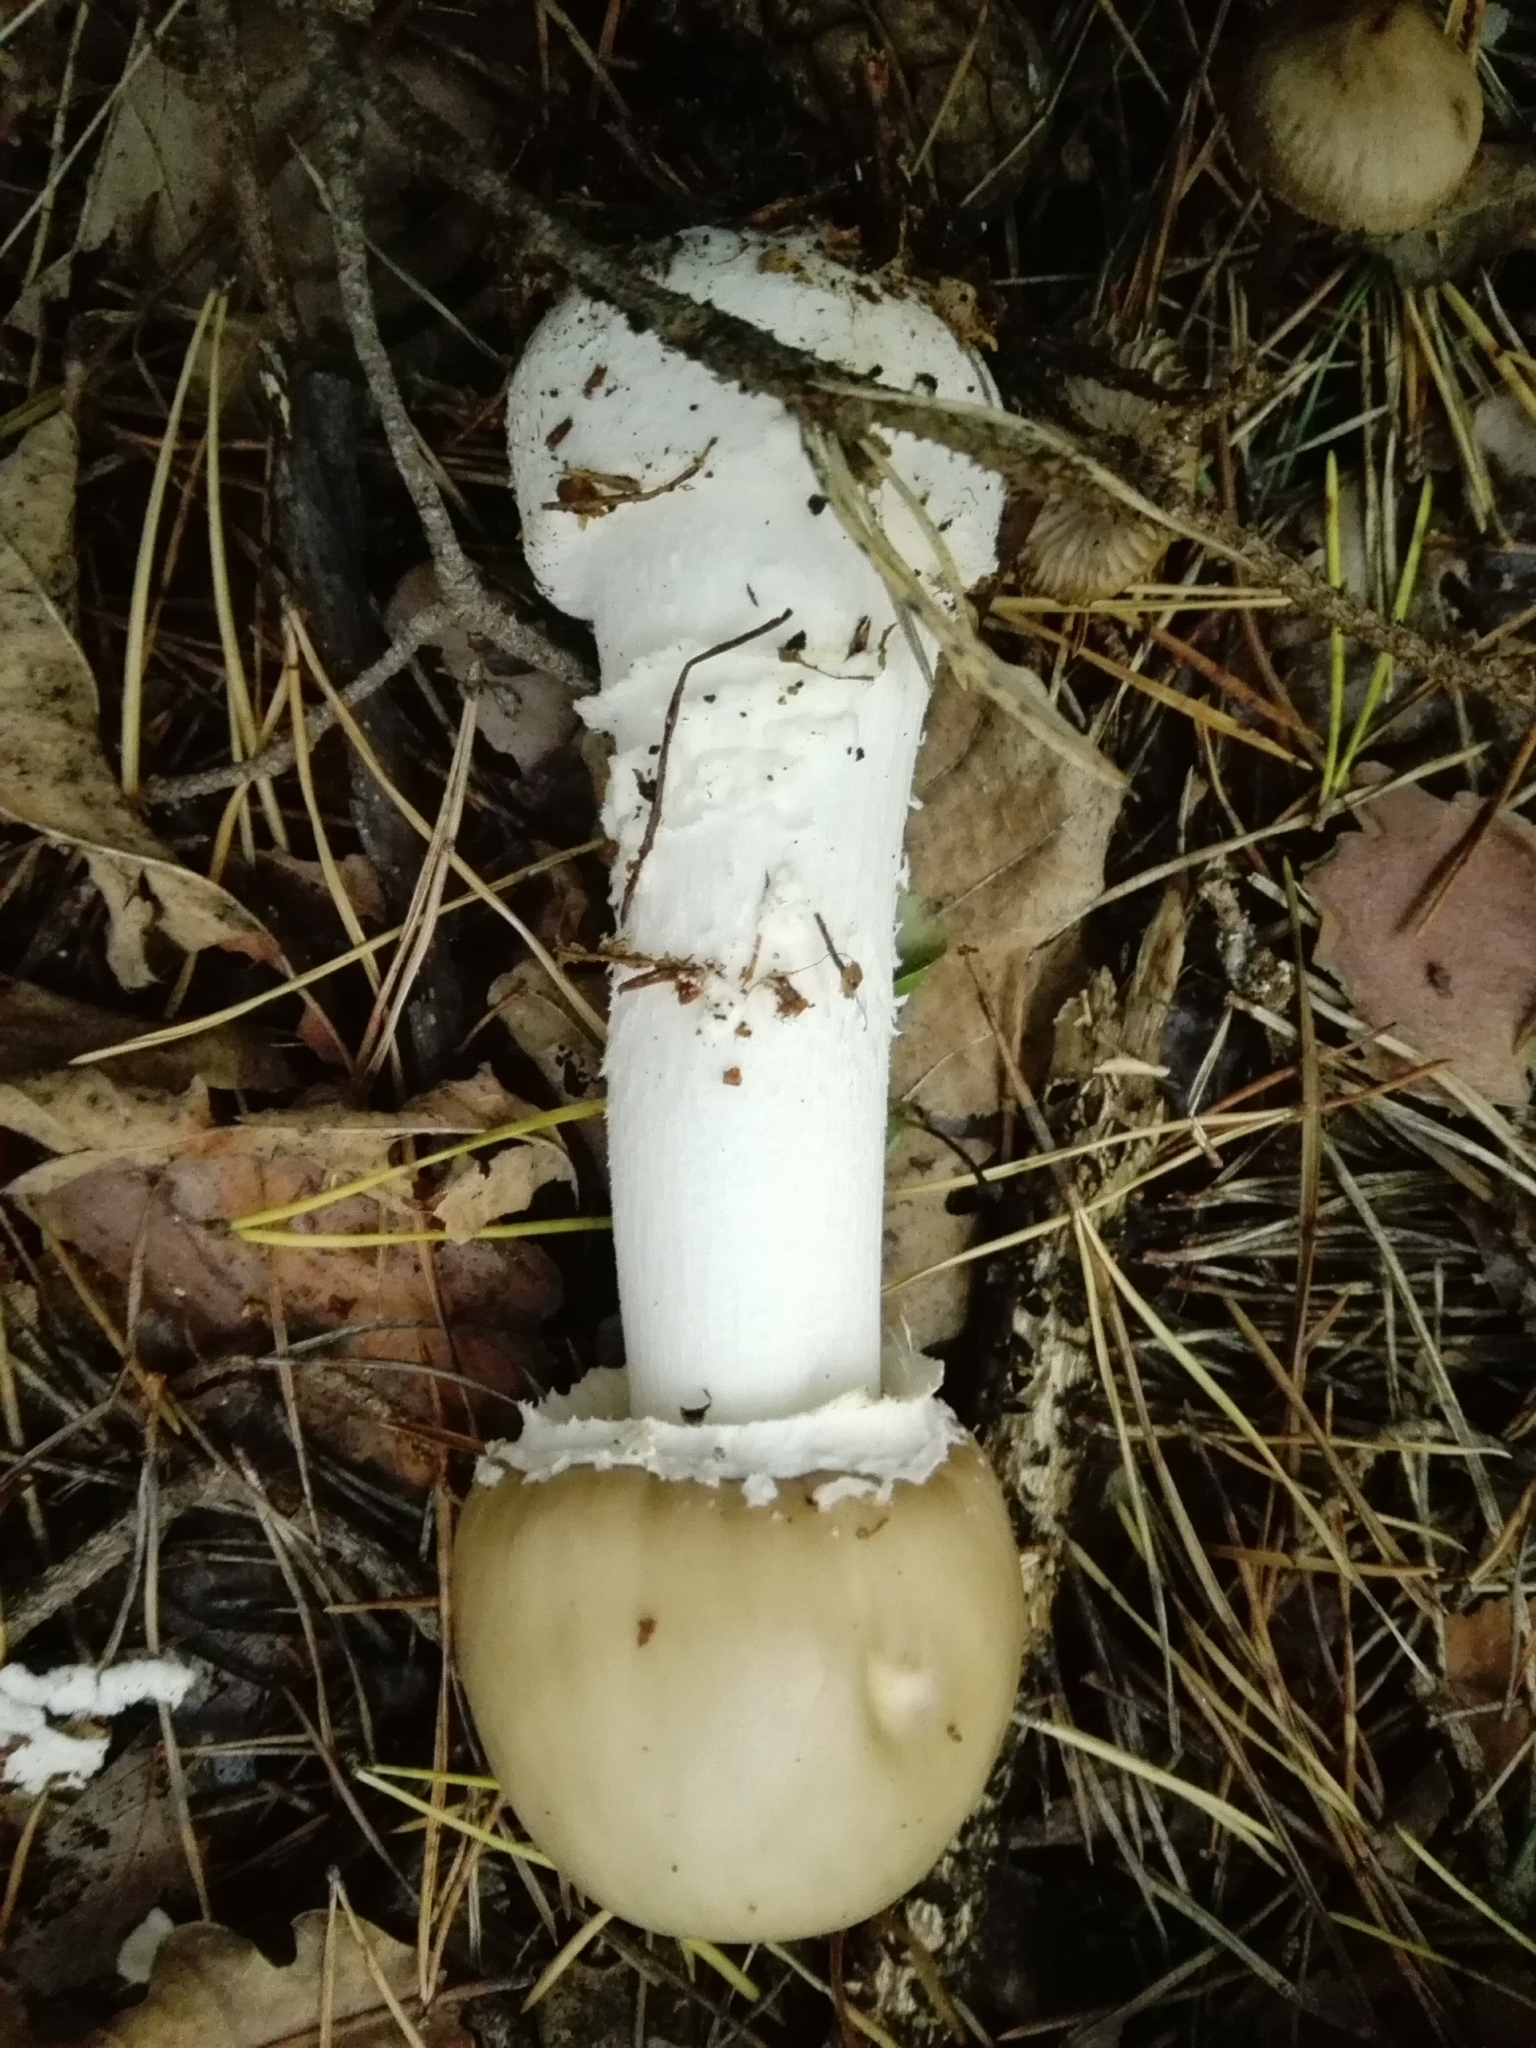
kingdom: Fungi
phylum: Basidiomycota
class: Agaricomycetes
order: Agaricales
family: Amanitaceae
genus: Amanita
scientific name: Amanita pantherina
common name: Panthercap
